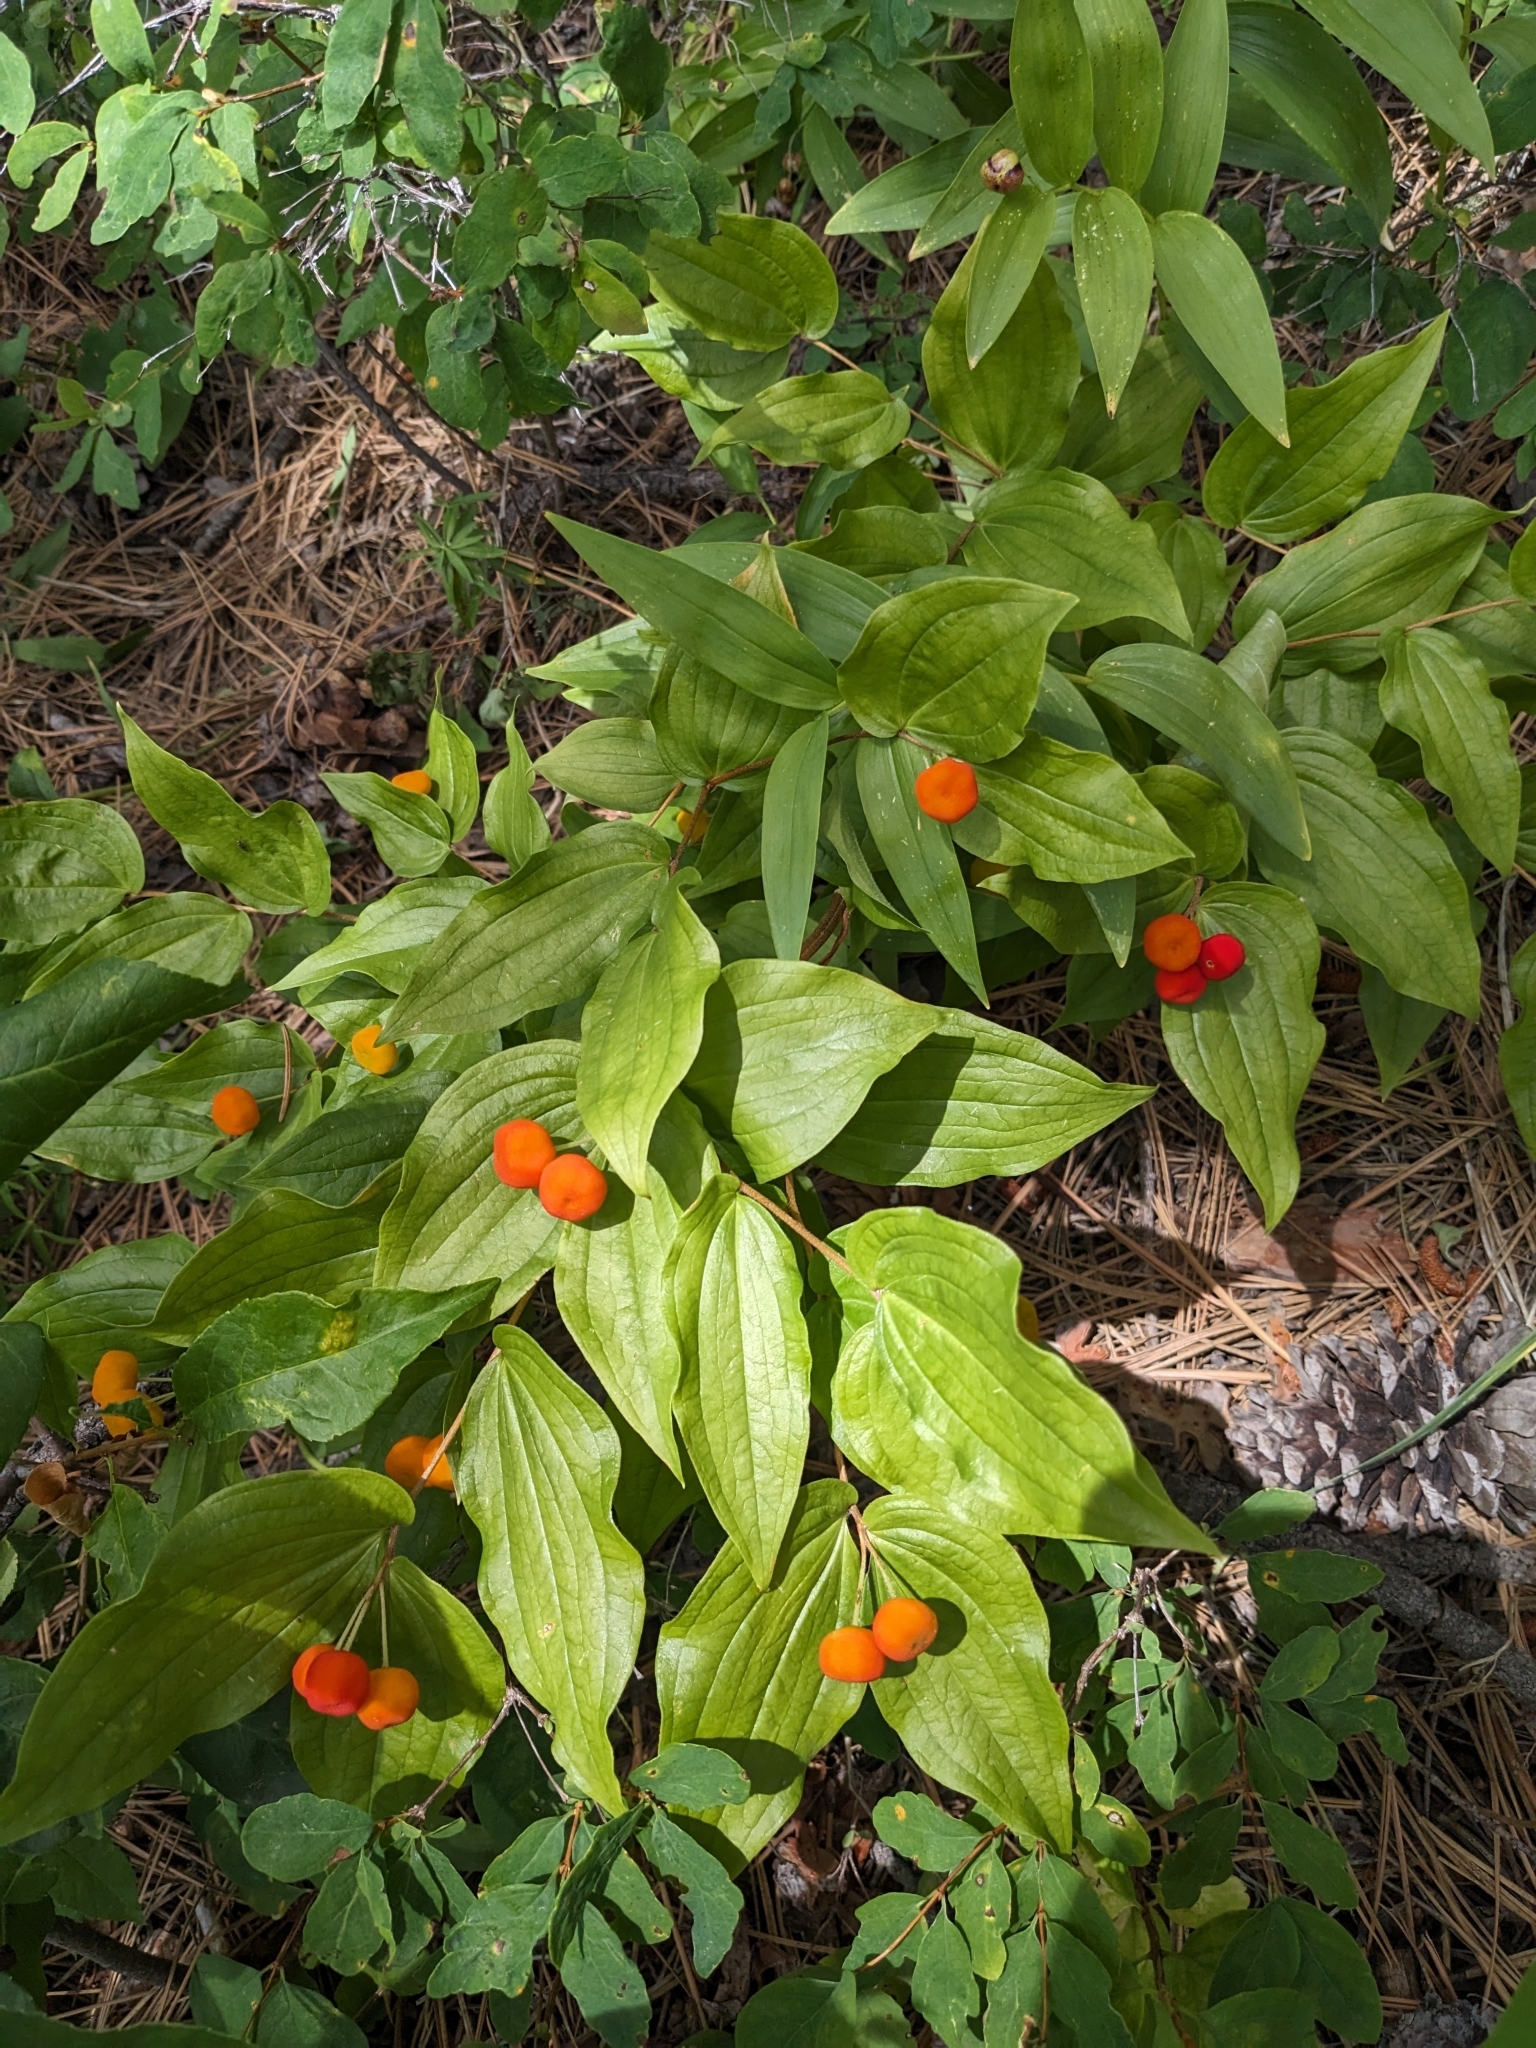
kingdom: Plantae
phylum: Tracheophyta
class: Liliopsida
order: Liliales
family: Liliaceae
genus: Prosartes
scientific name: Prosartes trachycarpa
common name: Rough-fruit fairy-bells
